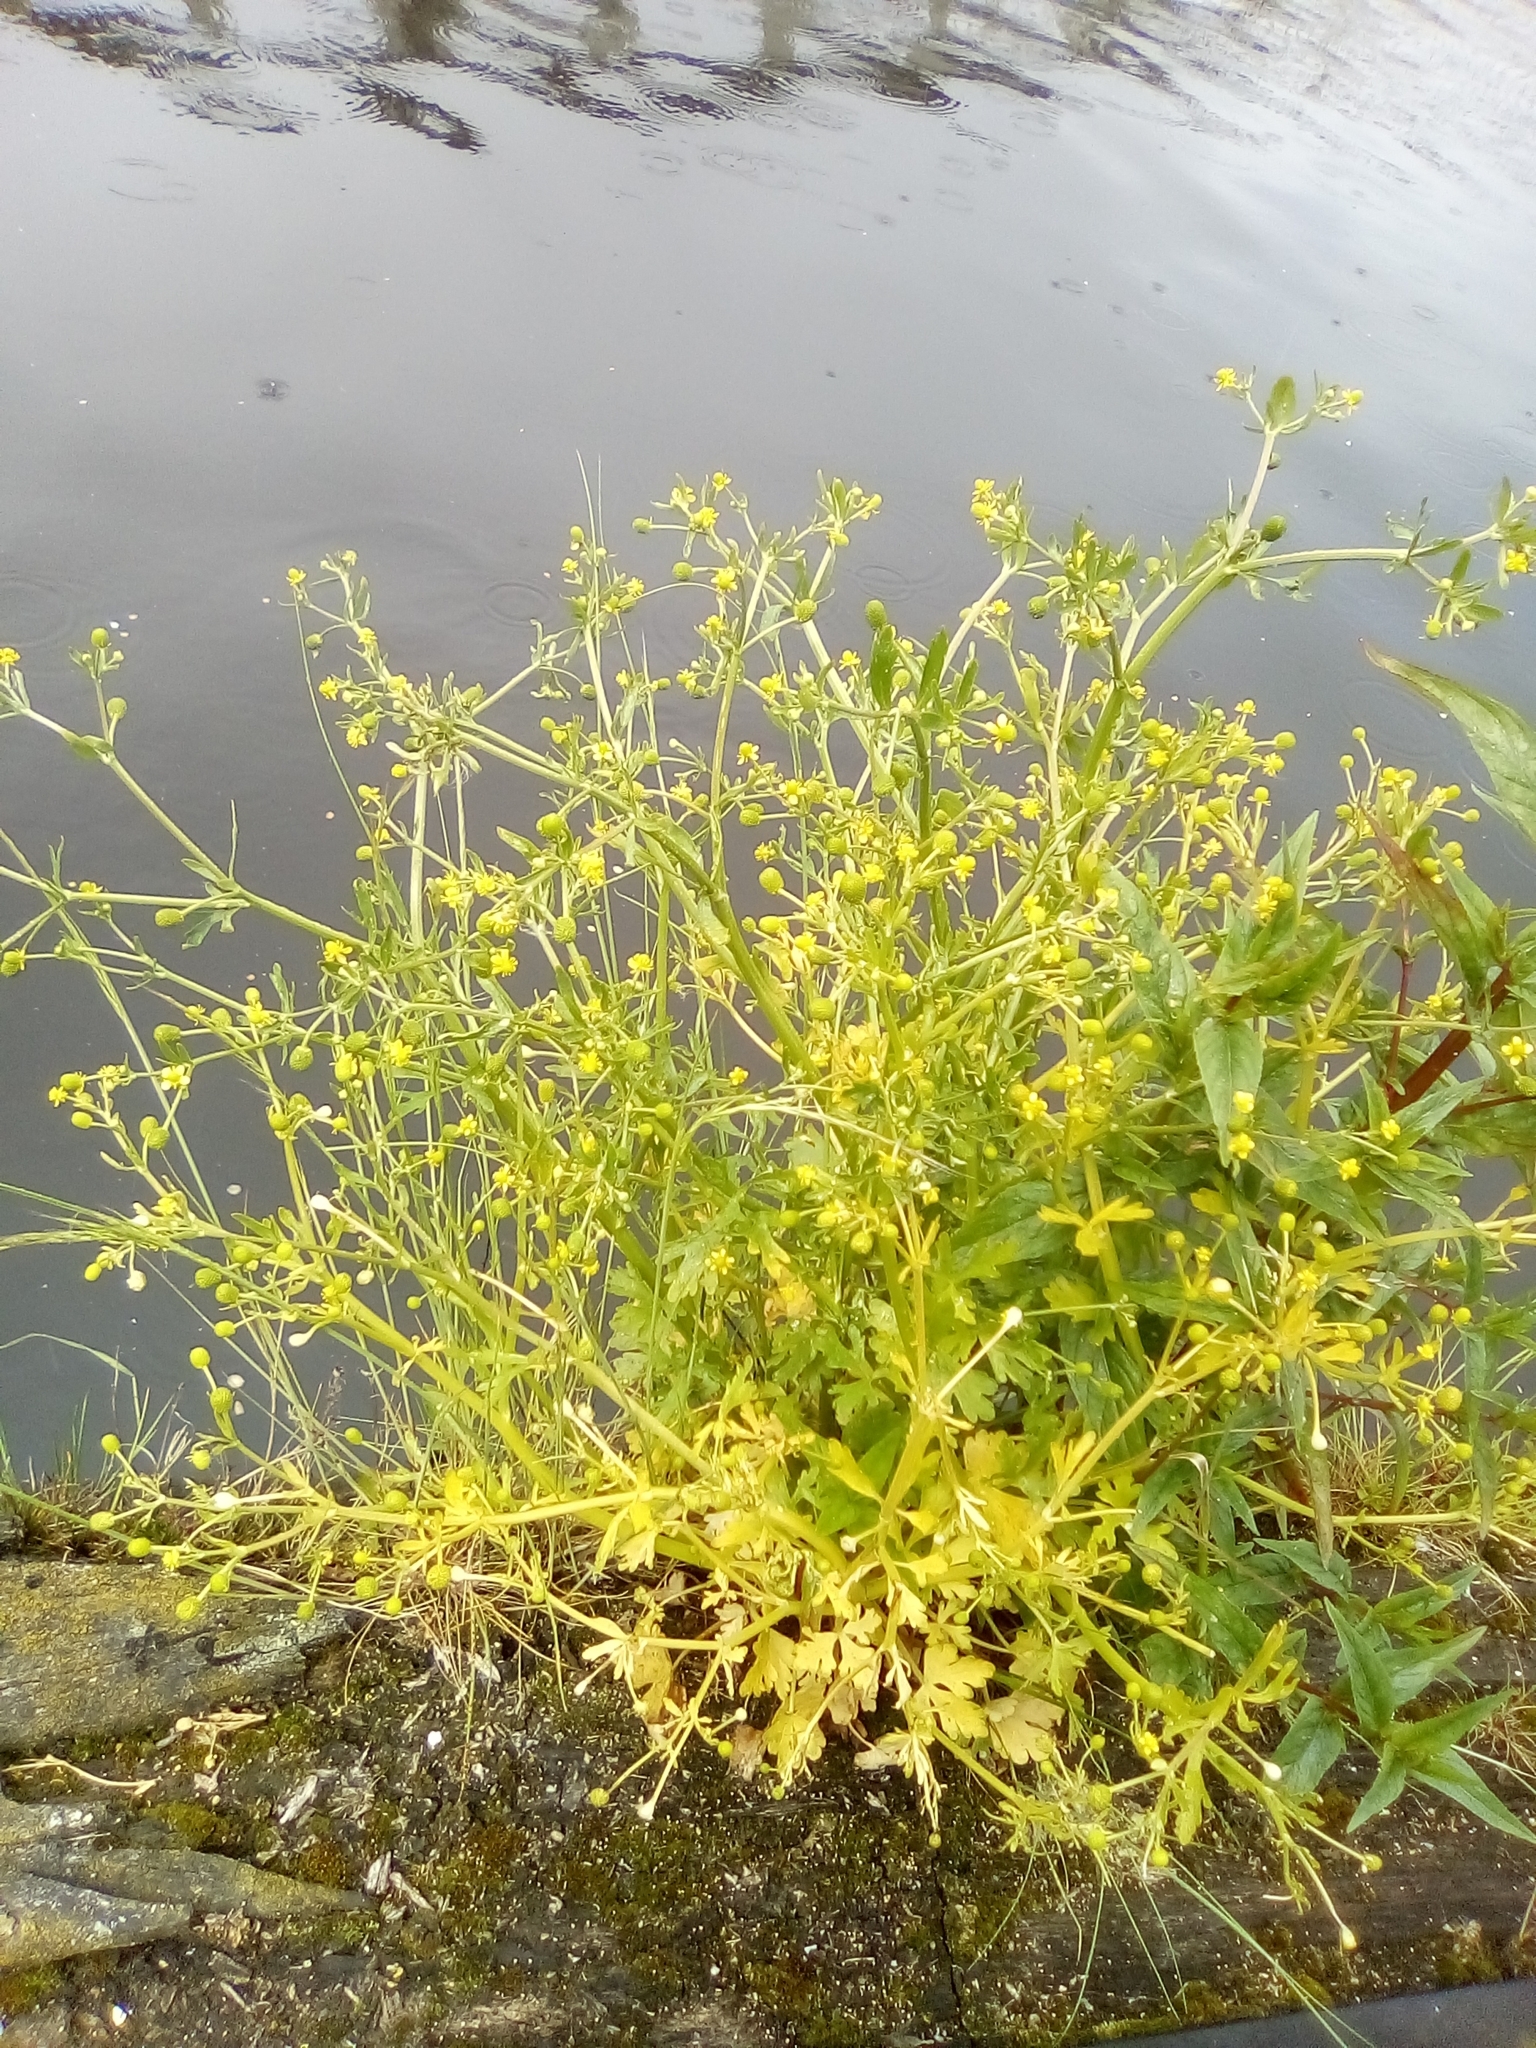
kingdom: Plantae
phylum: Tracheophyta
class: Magnoliopsida
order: Ranunculales
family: Ranunculaceae
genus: Ranunculus
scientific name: Ranunculus sceleratus
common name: Celery-leaved buttercup
